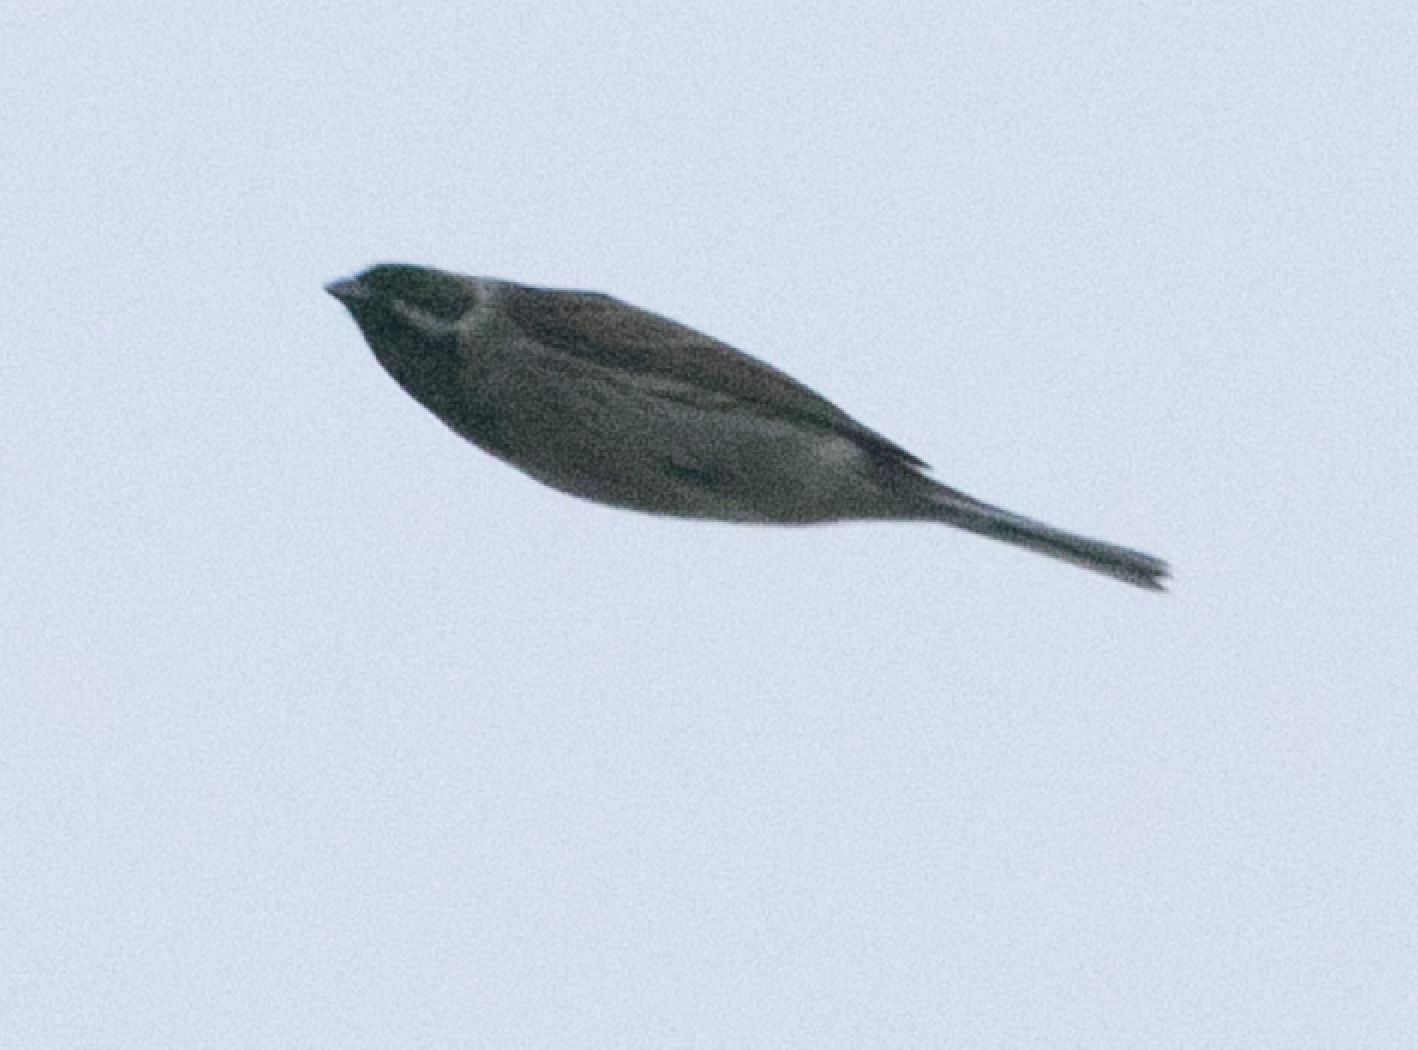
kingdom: Animalia
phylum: Chordata
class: Aves
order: Passeriformes
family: Emberizidae
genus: Emberiza
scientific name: Emberiza schoeniclus
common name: Reed bunting
